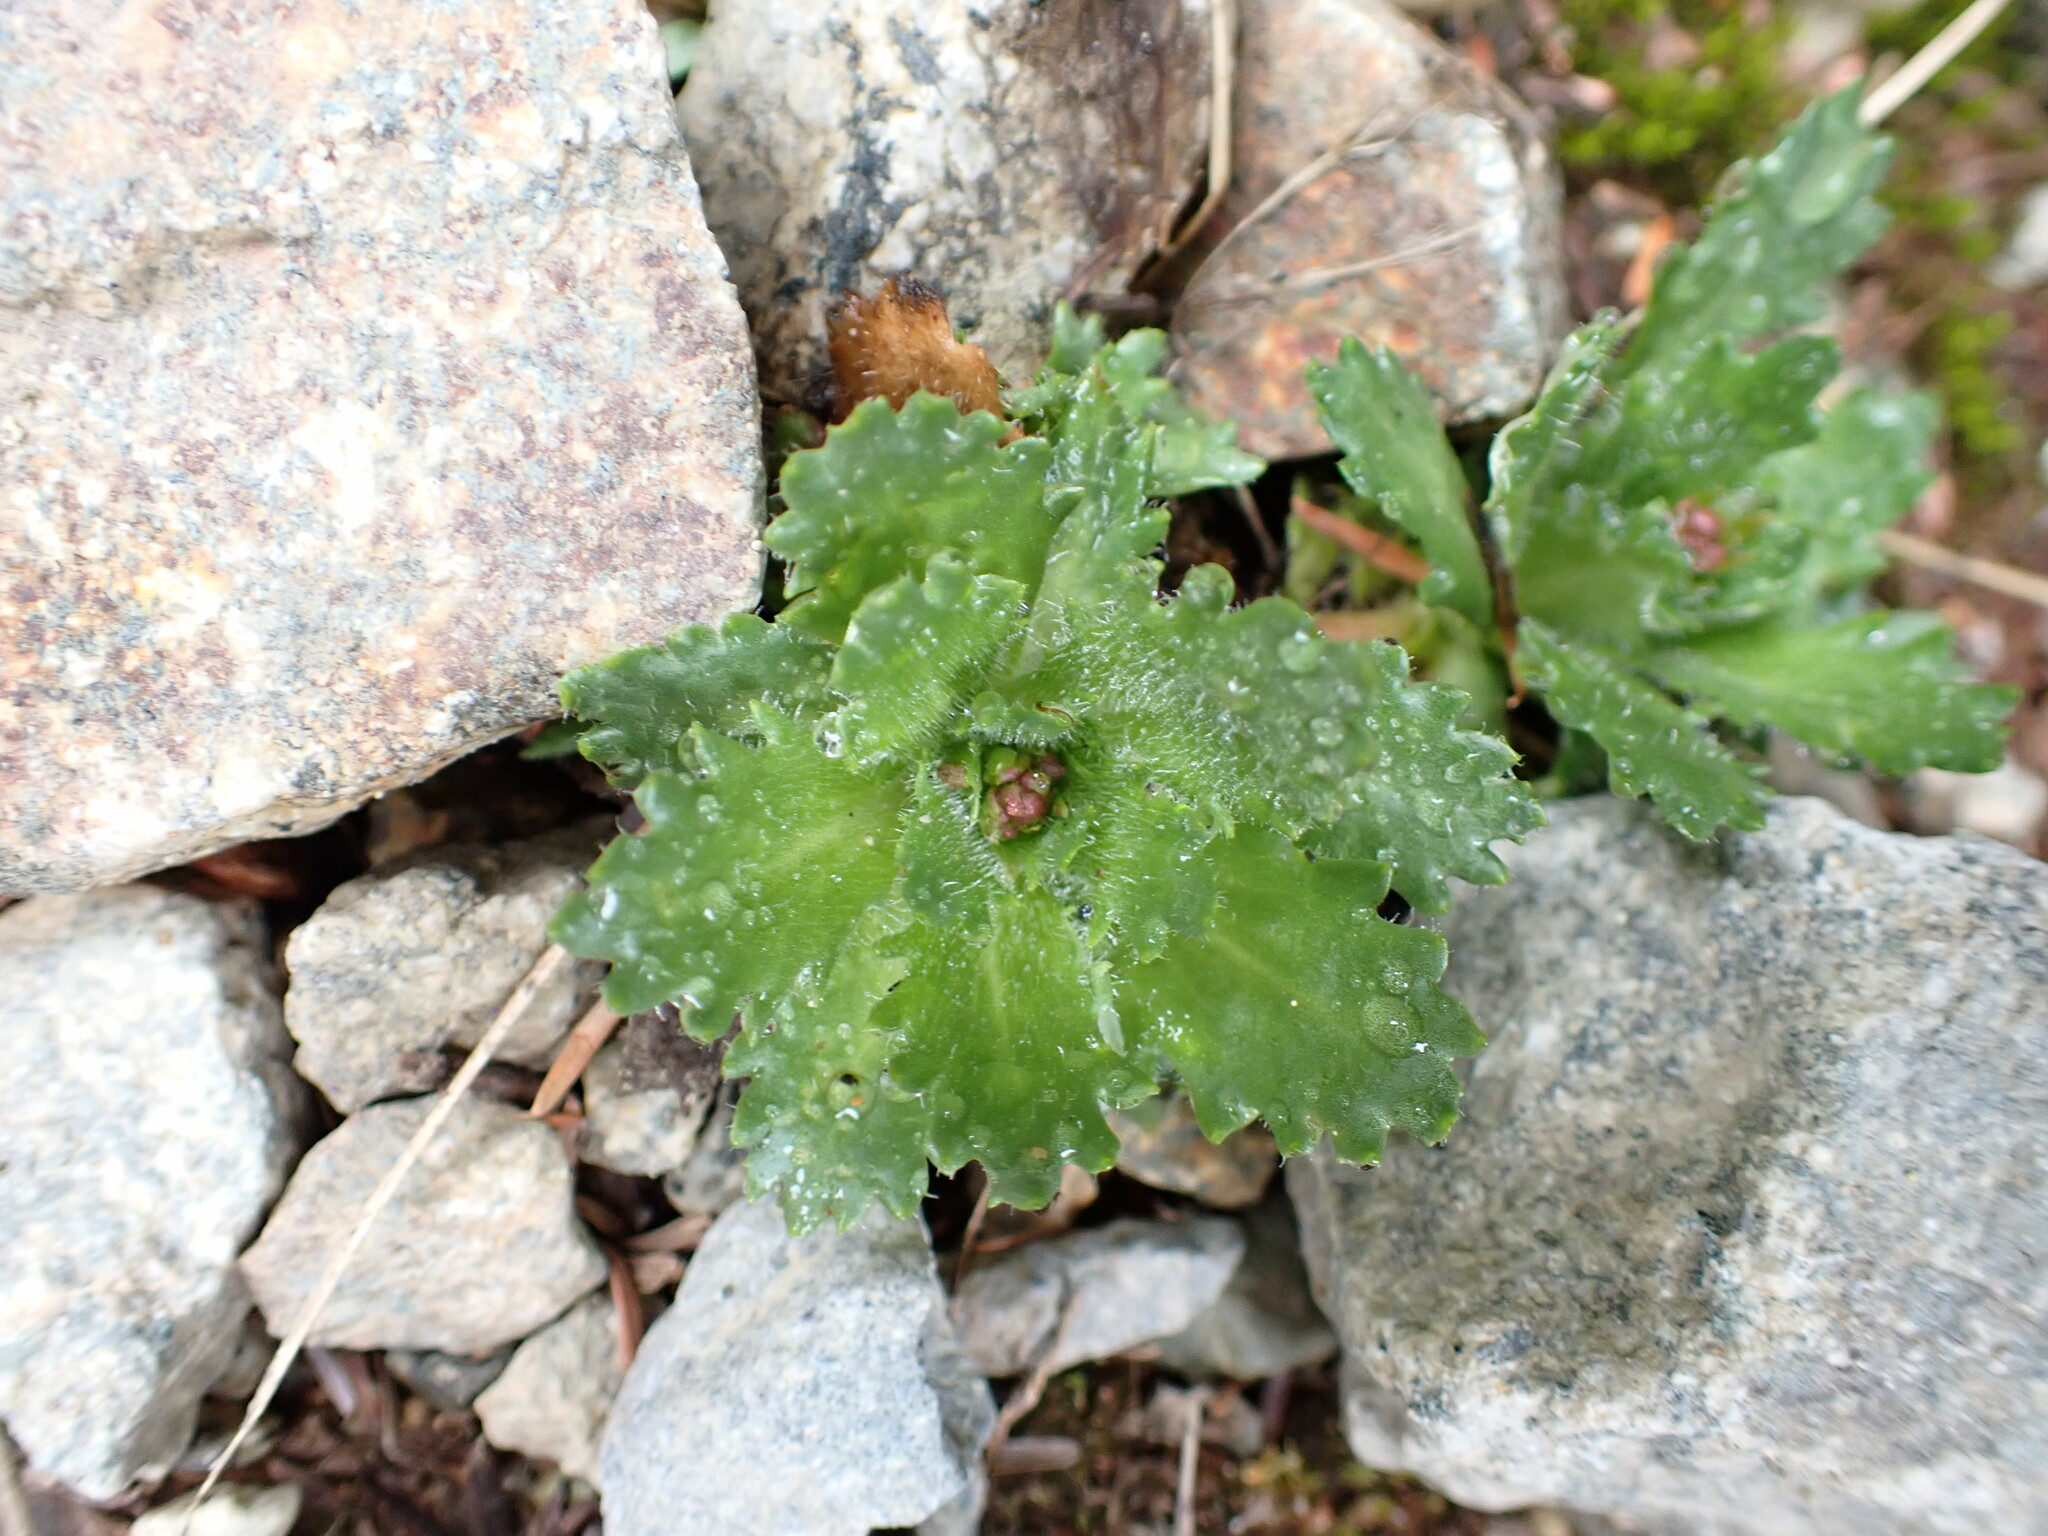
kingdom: Plantae
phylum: Tracheophyta
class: Magnoliopsida
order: Saxifragales
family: Saxifragaceae
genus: Micranthes
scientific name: Micranthes ferruginea
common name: Rusty saxifrage
